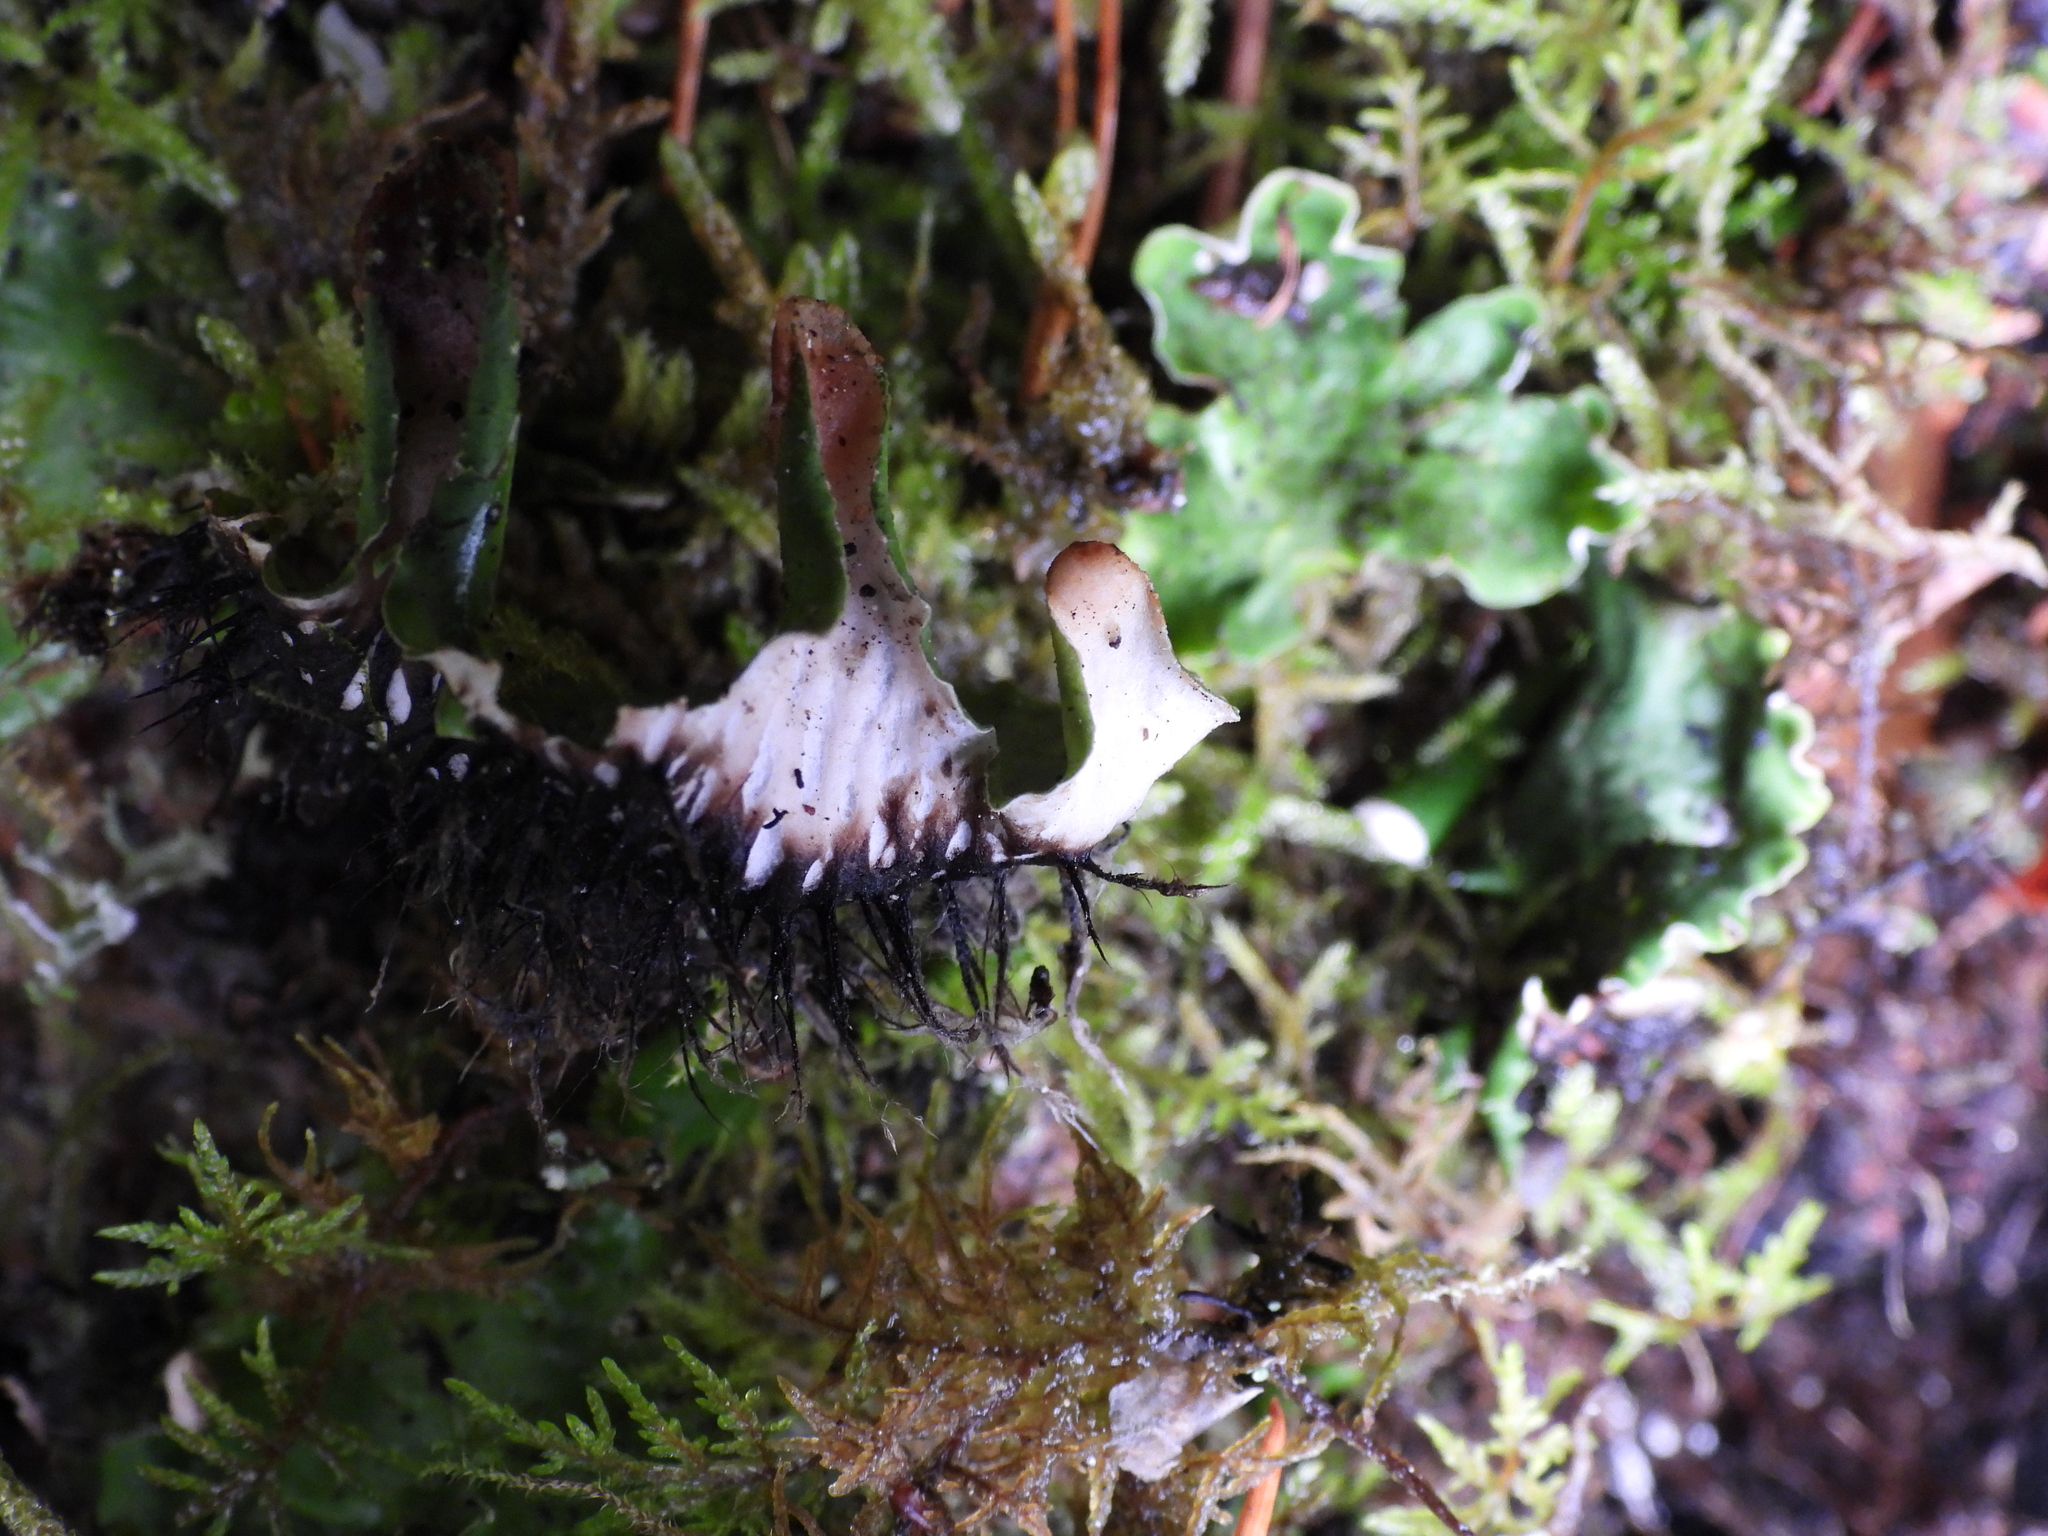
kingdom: Fungi
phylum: Ascomycota
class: Lecanoromycetes
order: Peltigerales
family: Peltigeraceae
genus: Peltigera
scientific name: Peltigera leucophlebia
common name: Ruffled freckle pelt lichen
